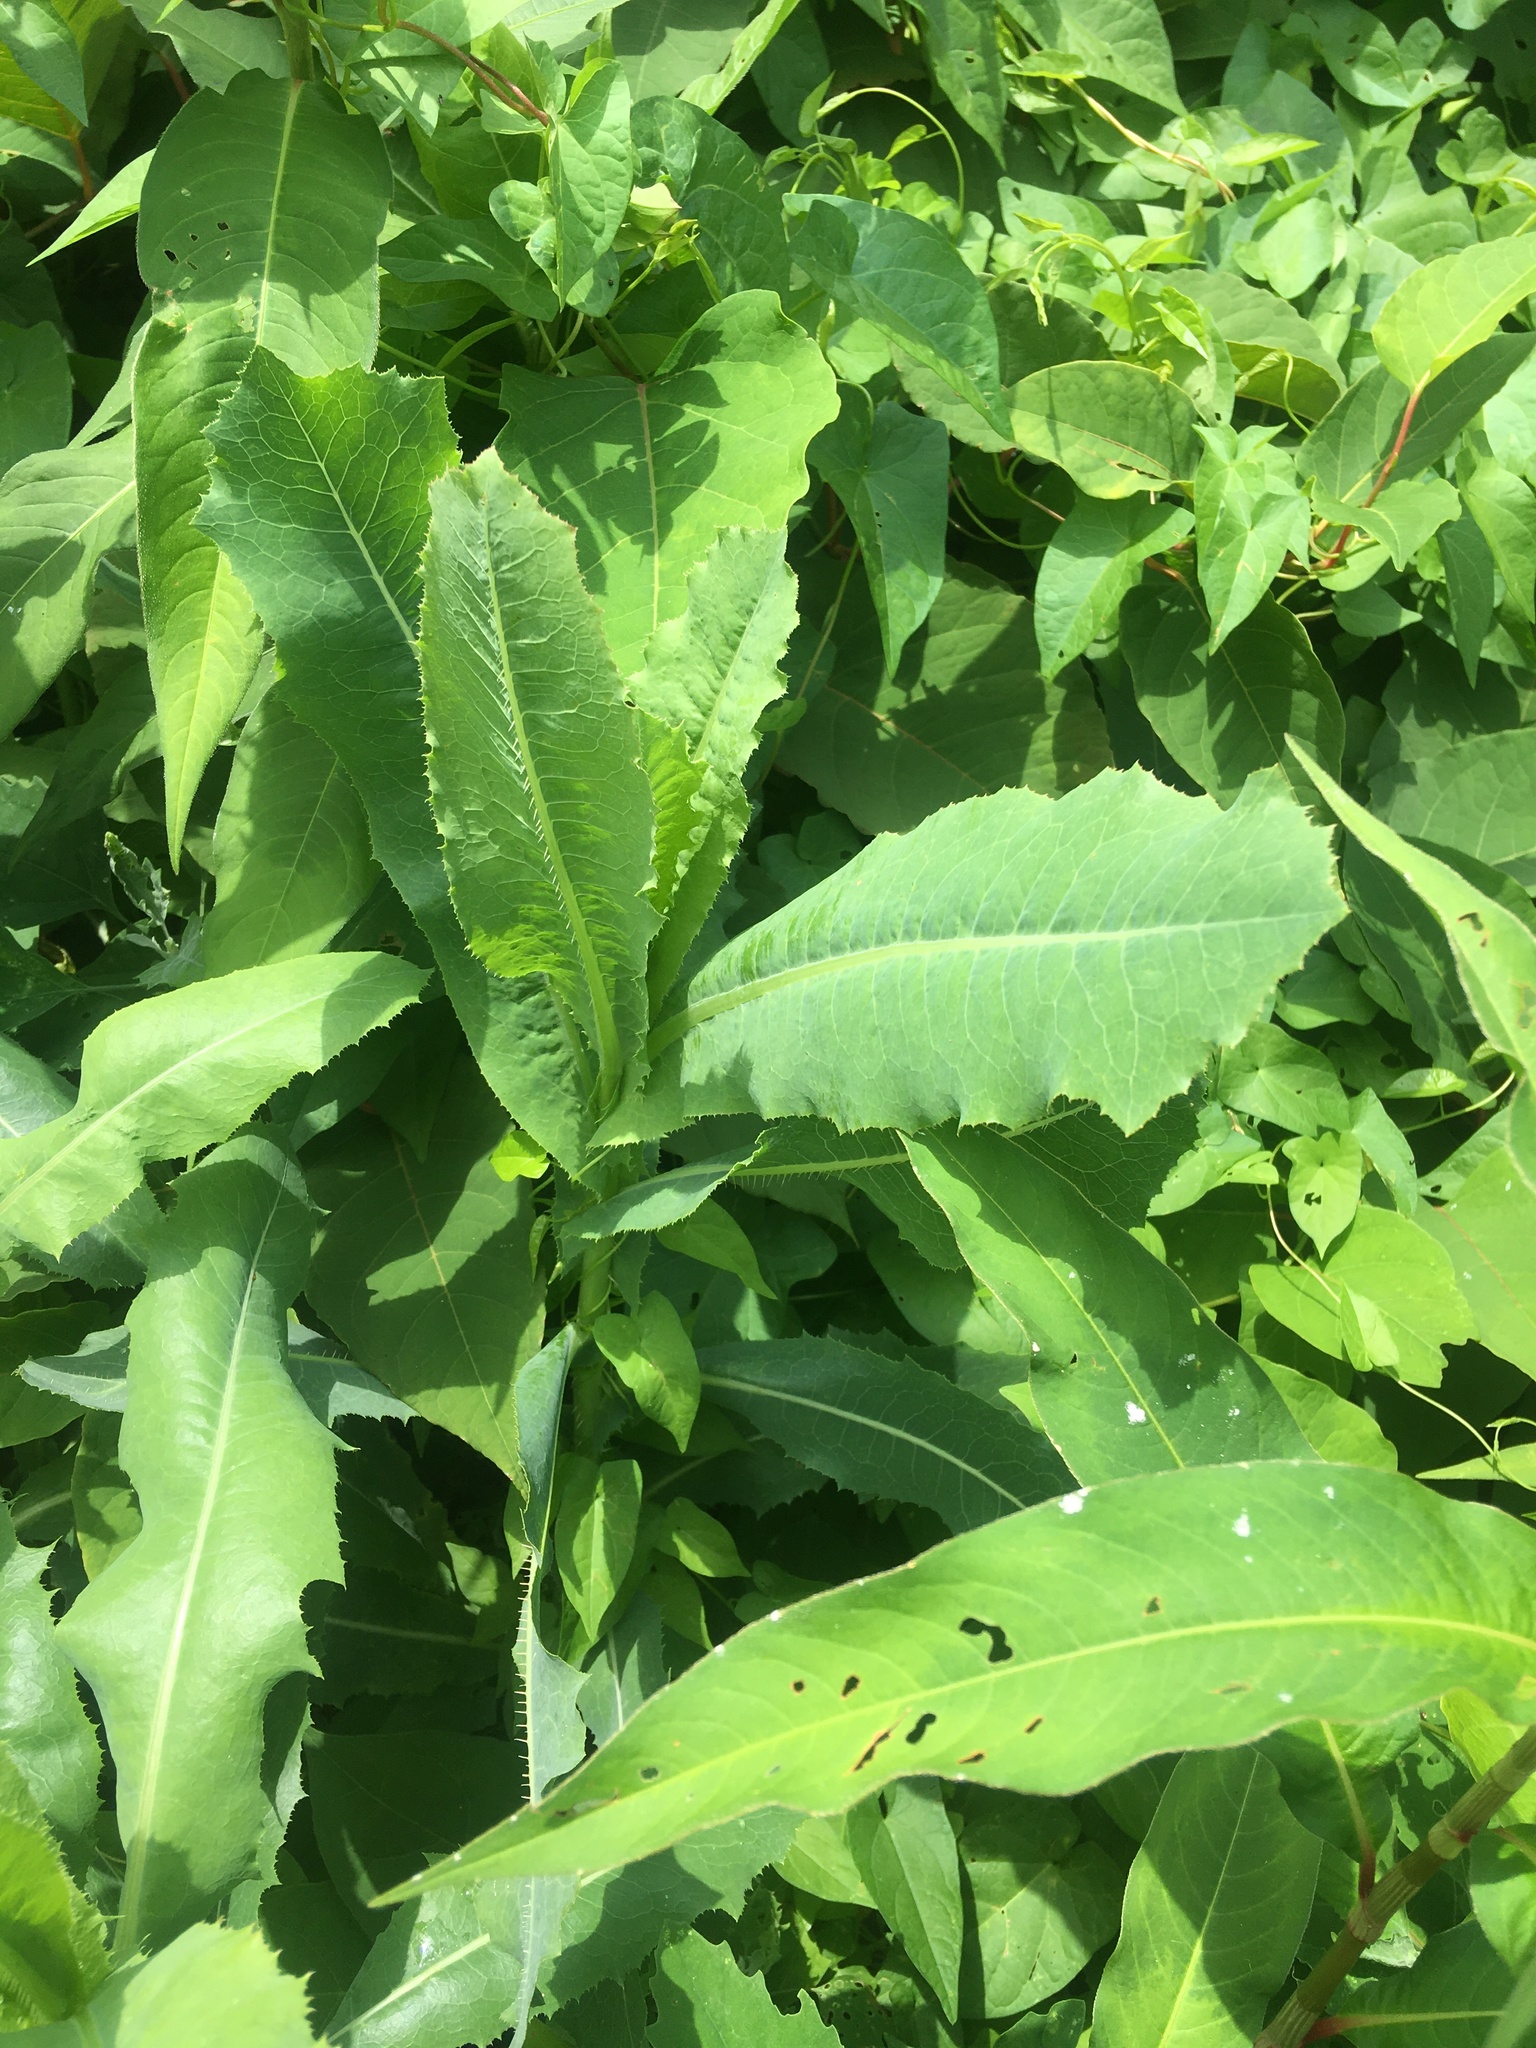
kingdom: Plantae
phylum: Tracheophyta
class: Magnoliopsida
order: Asterales
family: Asteraceae
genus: Lactuca
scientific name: Lactuca serriola
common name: Prickly lettuce
